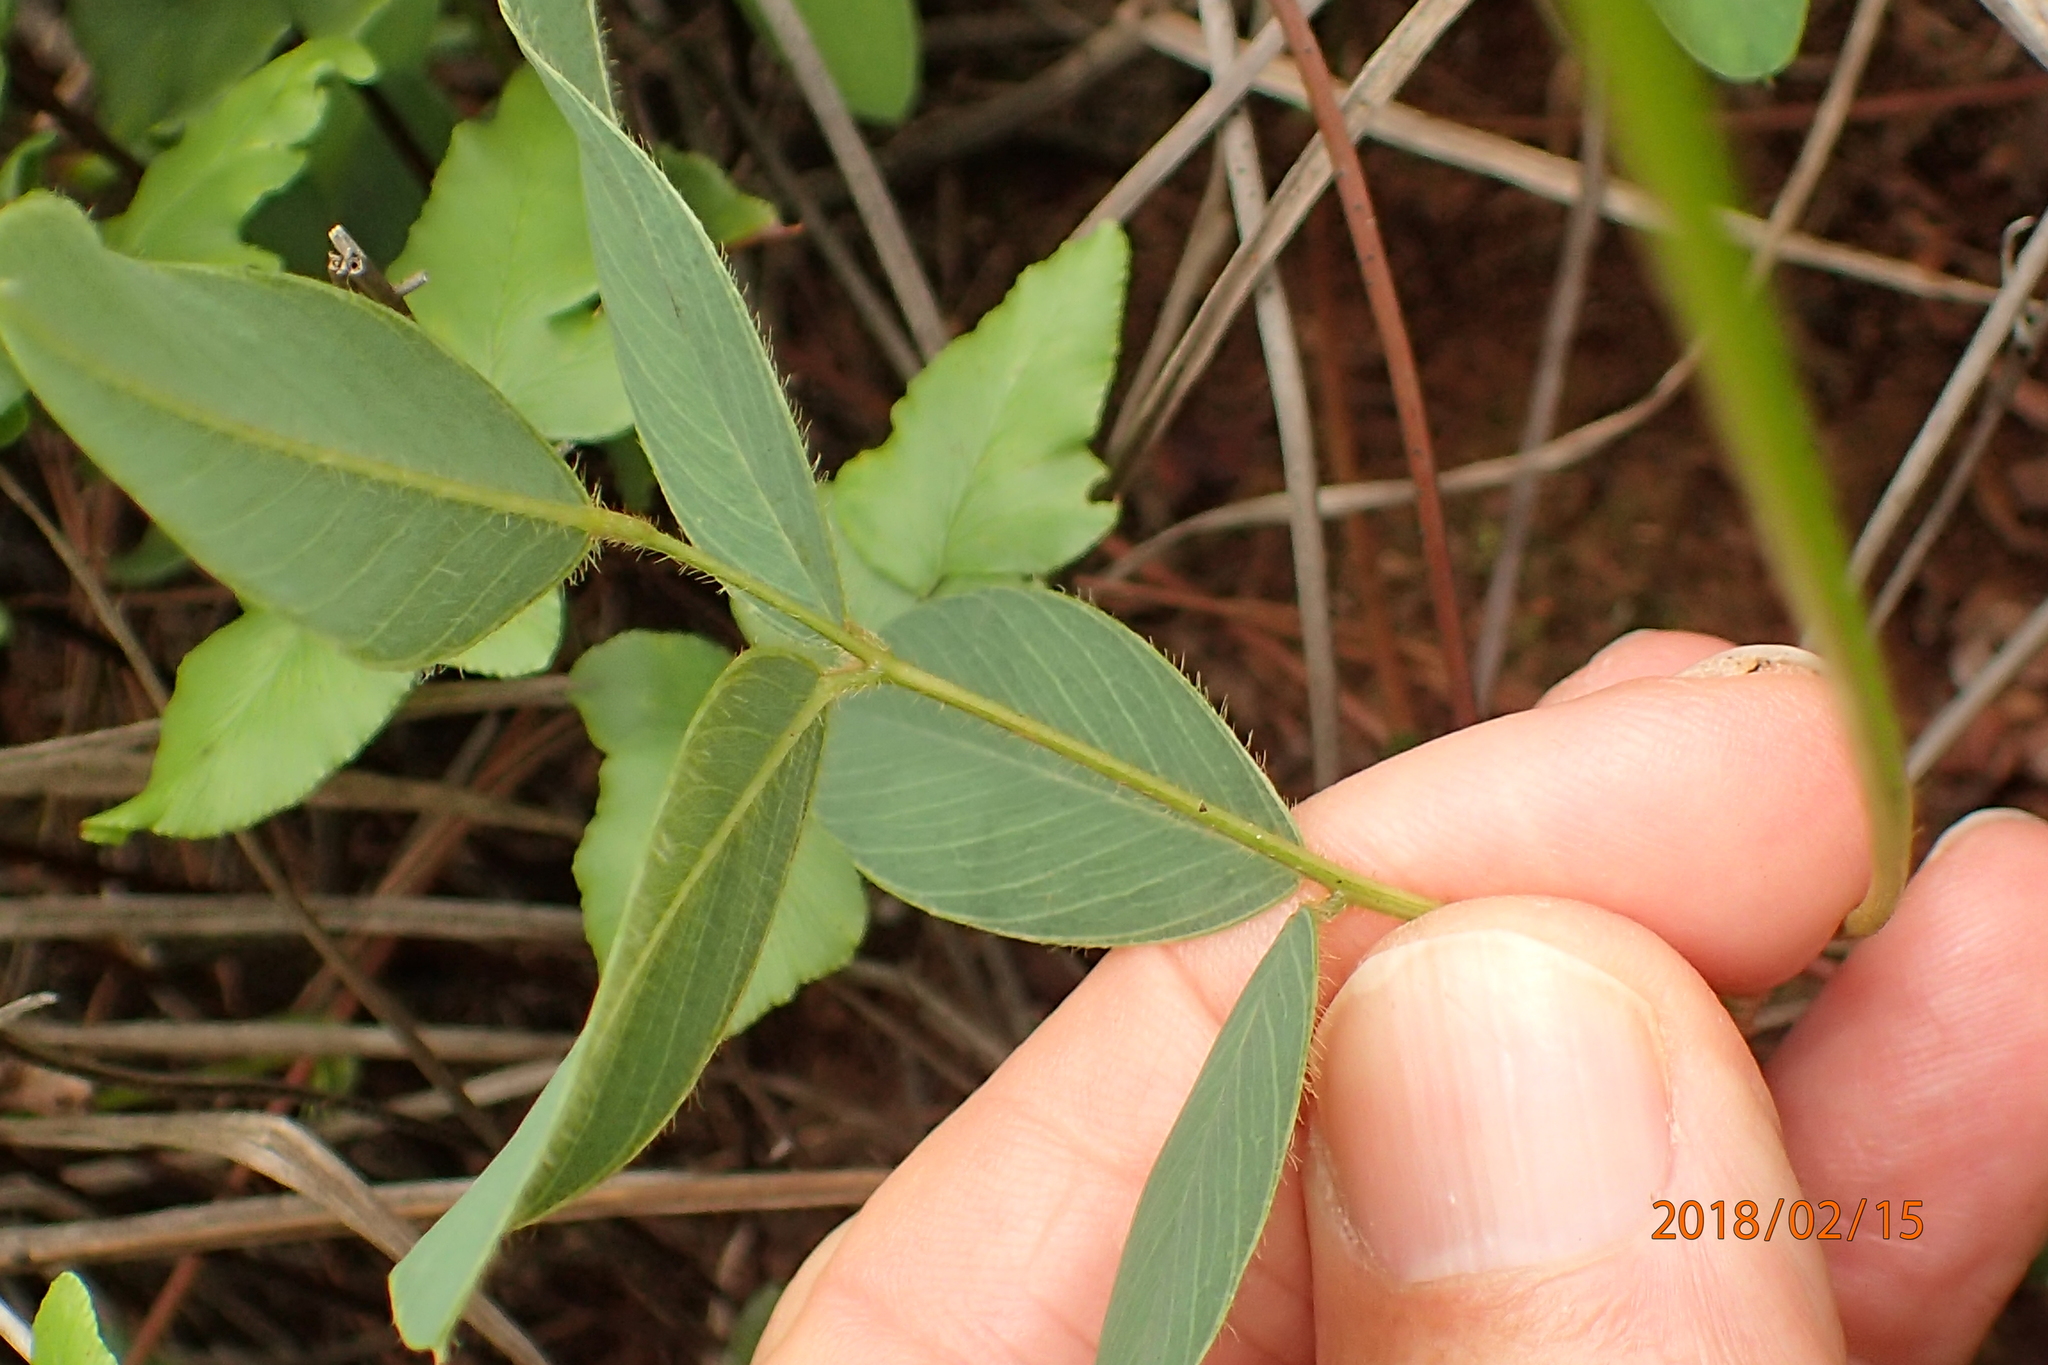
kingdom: Plantae
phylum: Tracheophyta
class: Magnoliopsida
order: Fabales
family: Fabaceae
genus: Tephrosia
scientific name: Tephrosia purpurea
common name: Fishpoison
